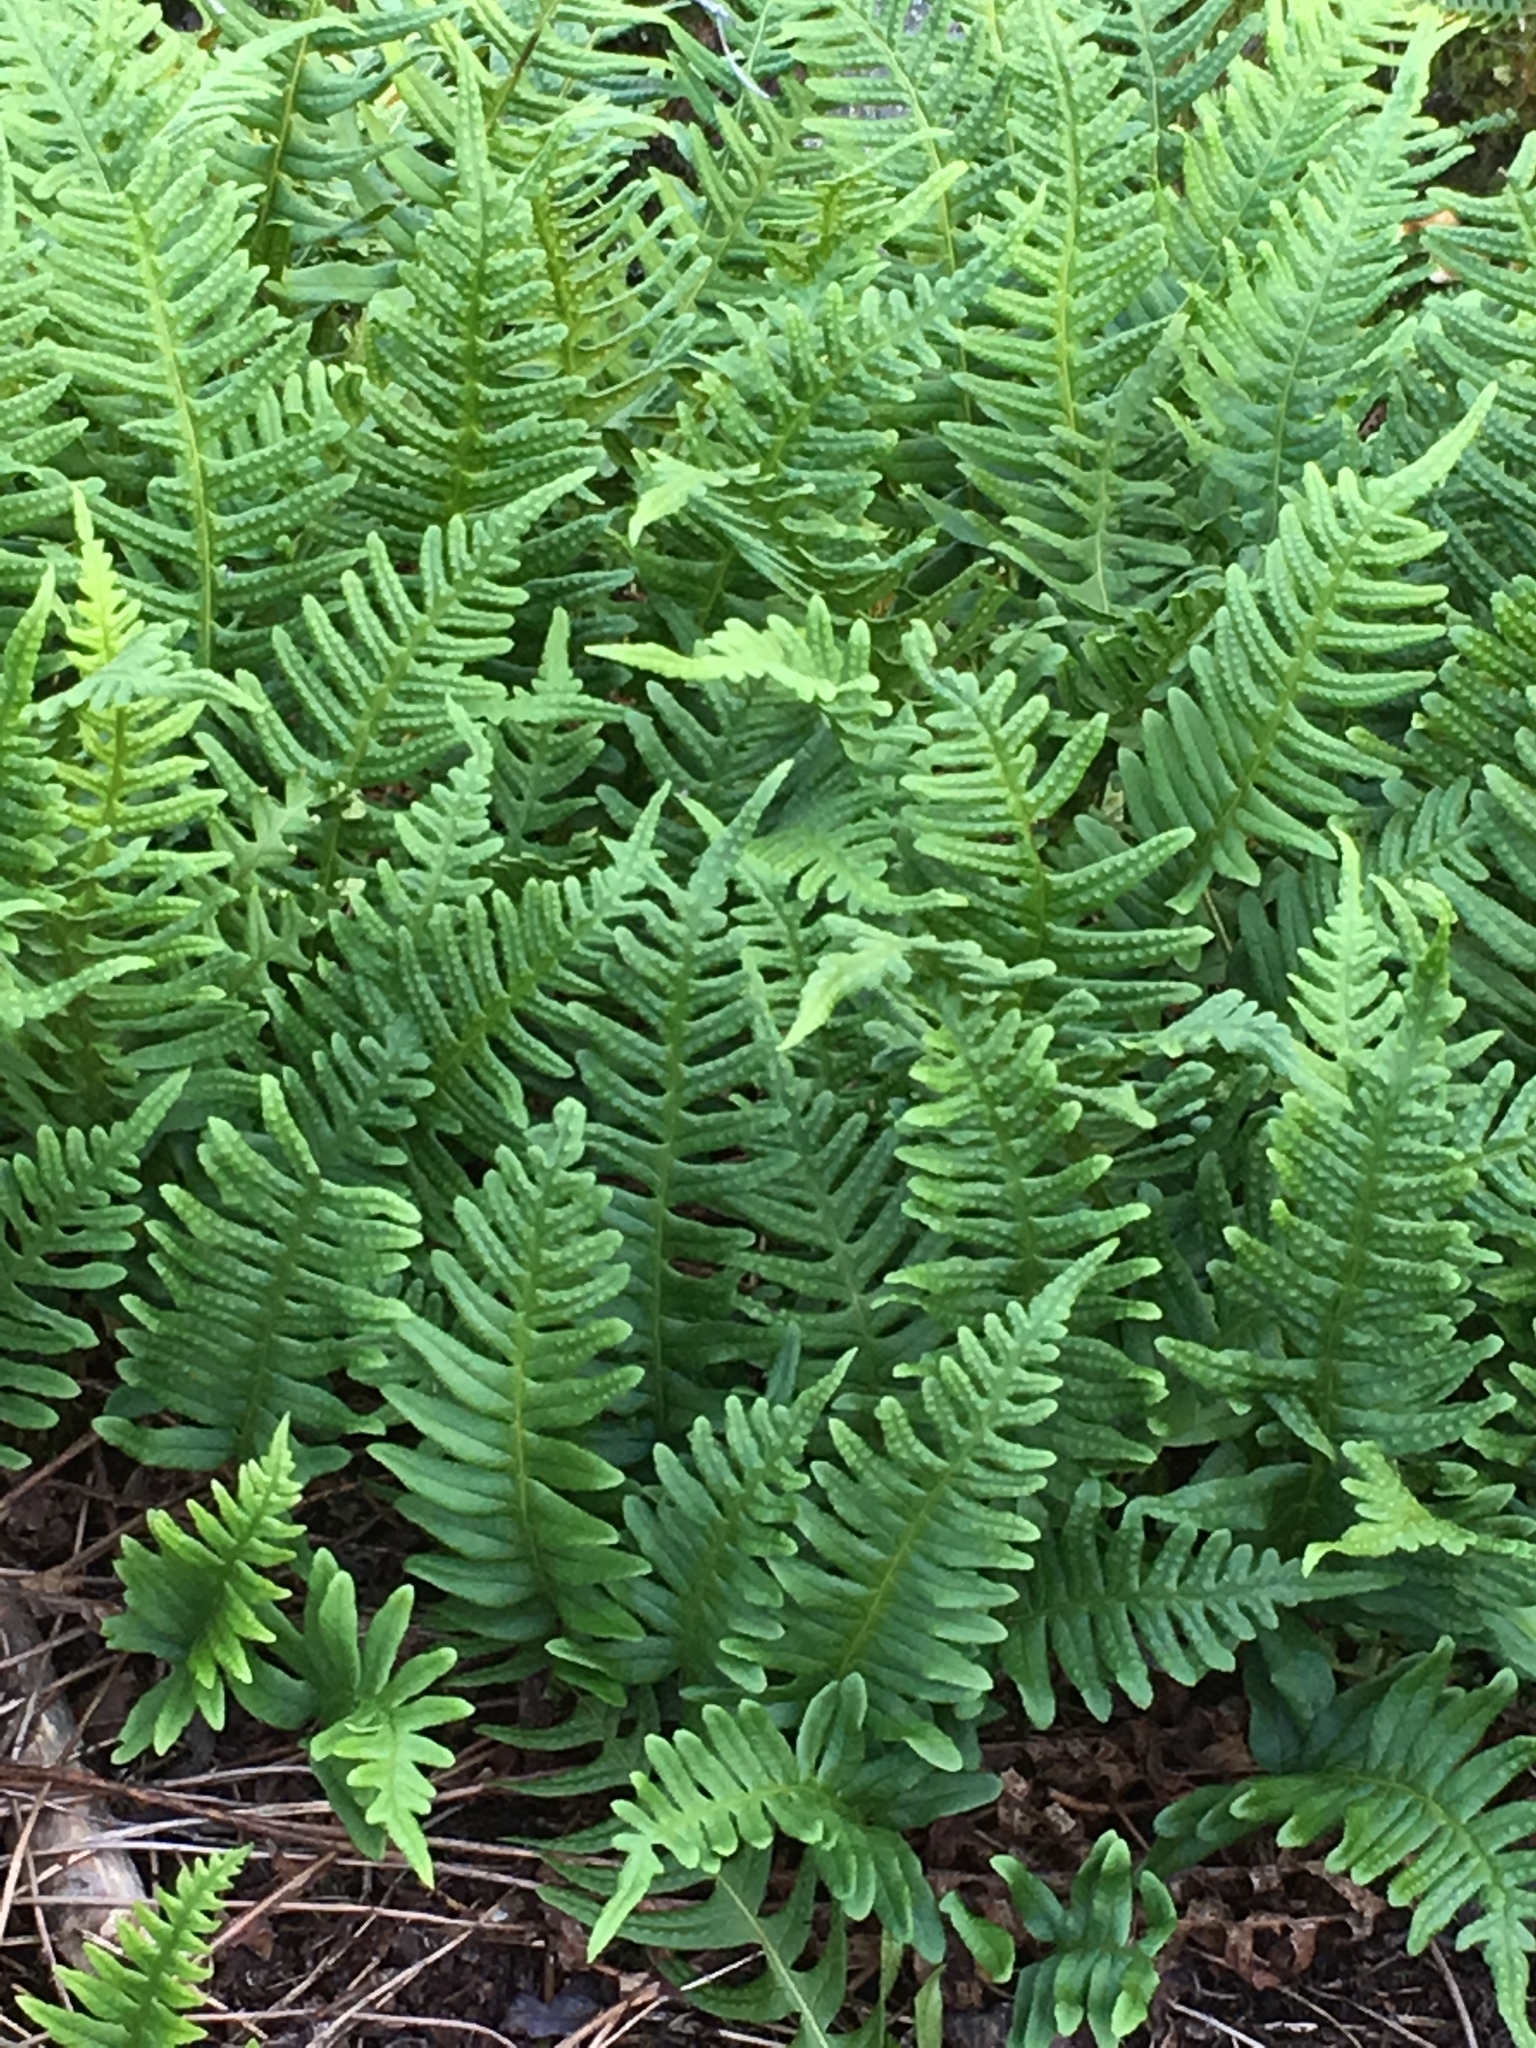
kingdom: Plantae
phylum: Tracheophyta
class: Polypodiopsida
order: Polypodiales
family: Polypodiaceae
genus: Polypodium
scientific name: Polypodium vulgare
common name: Common polypody
